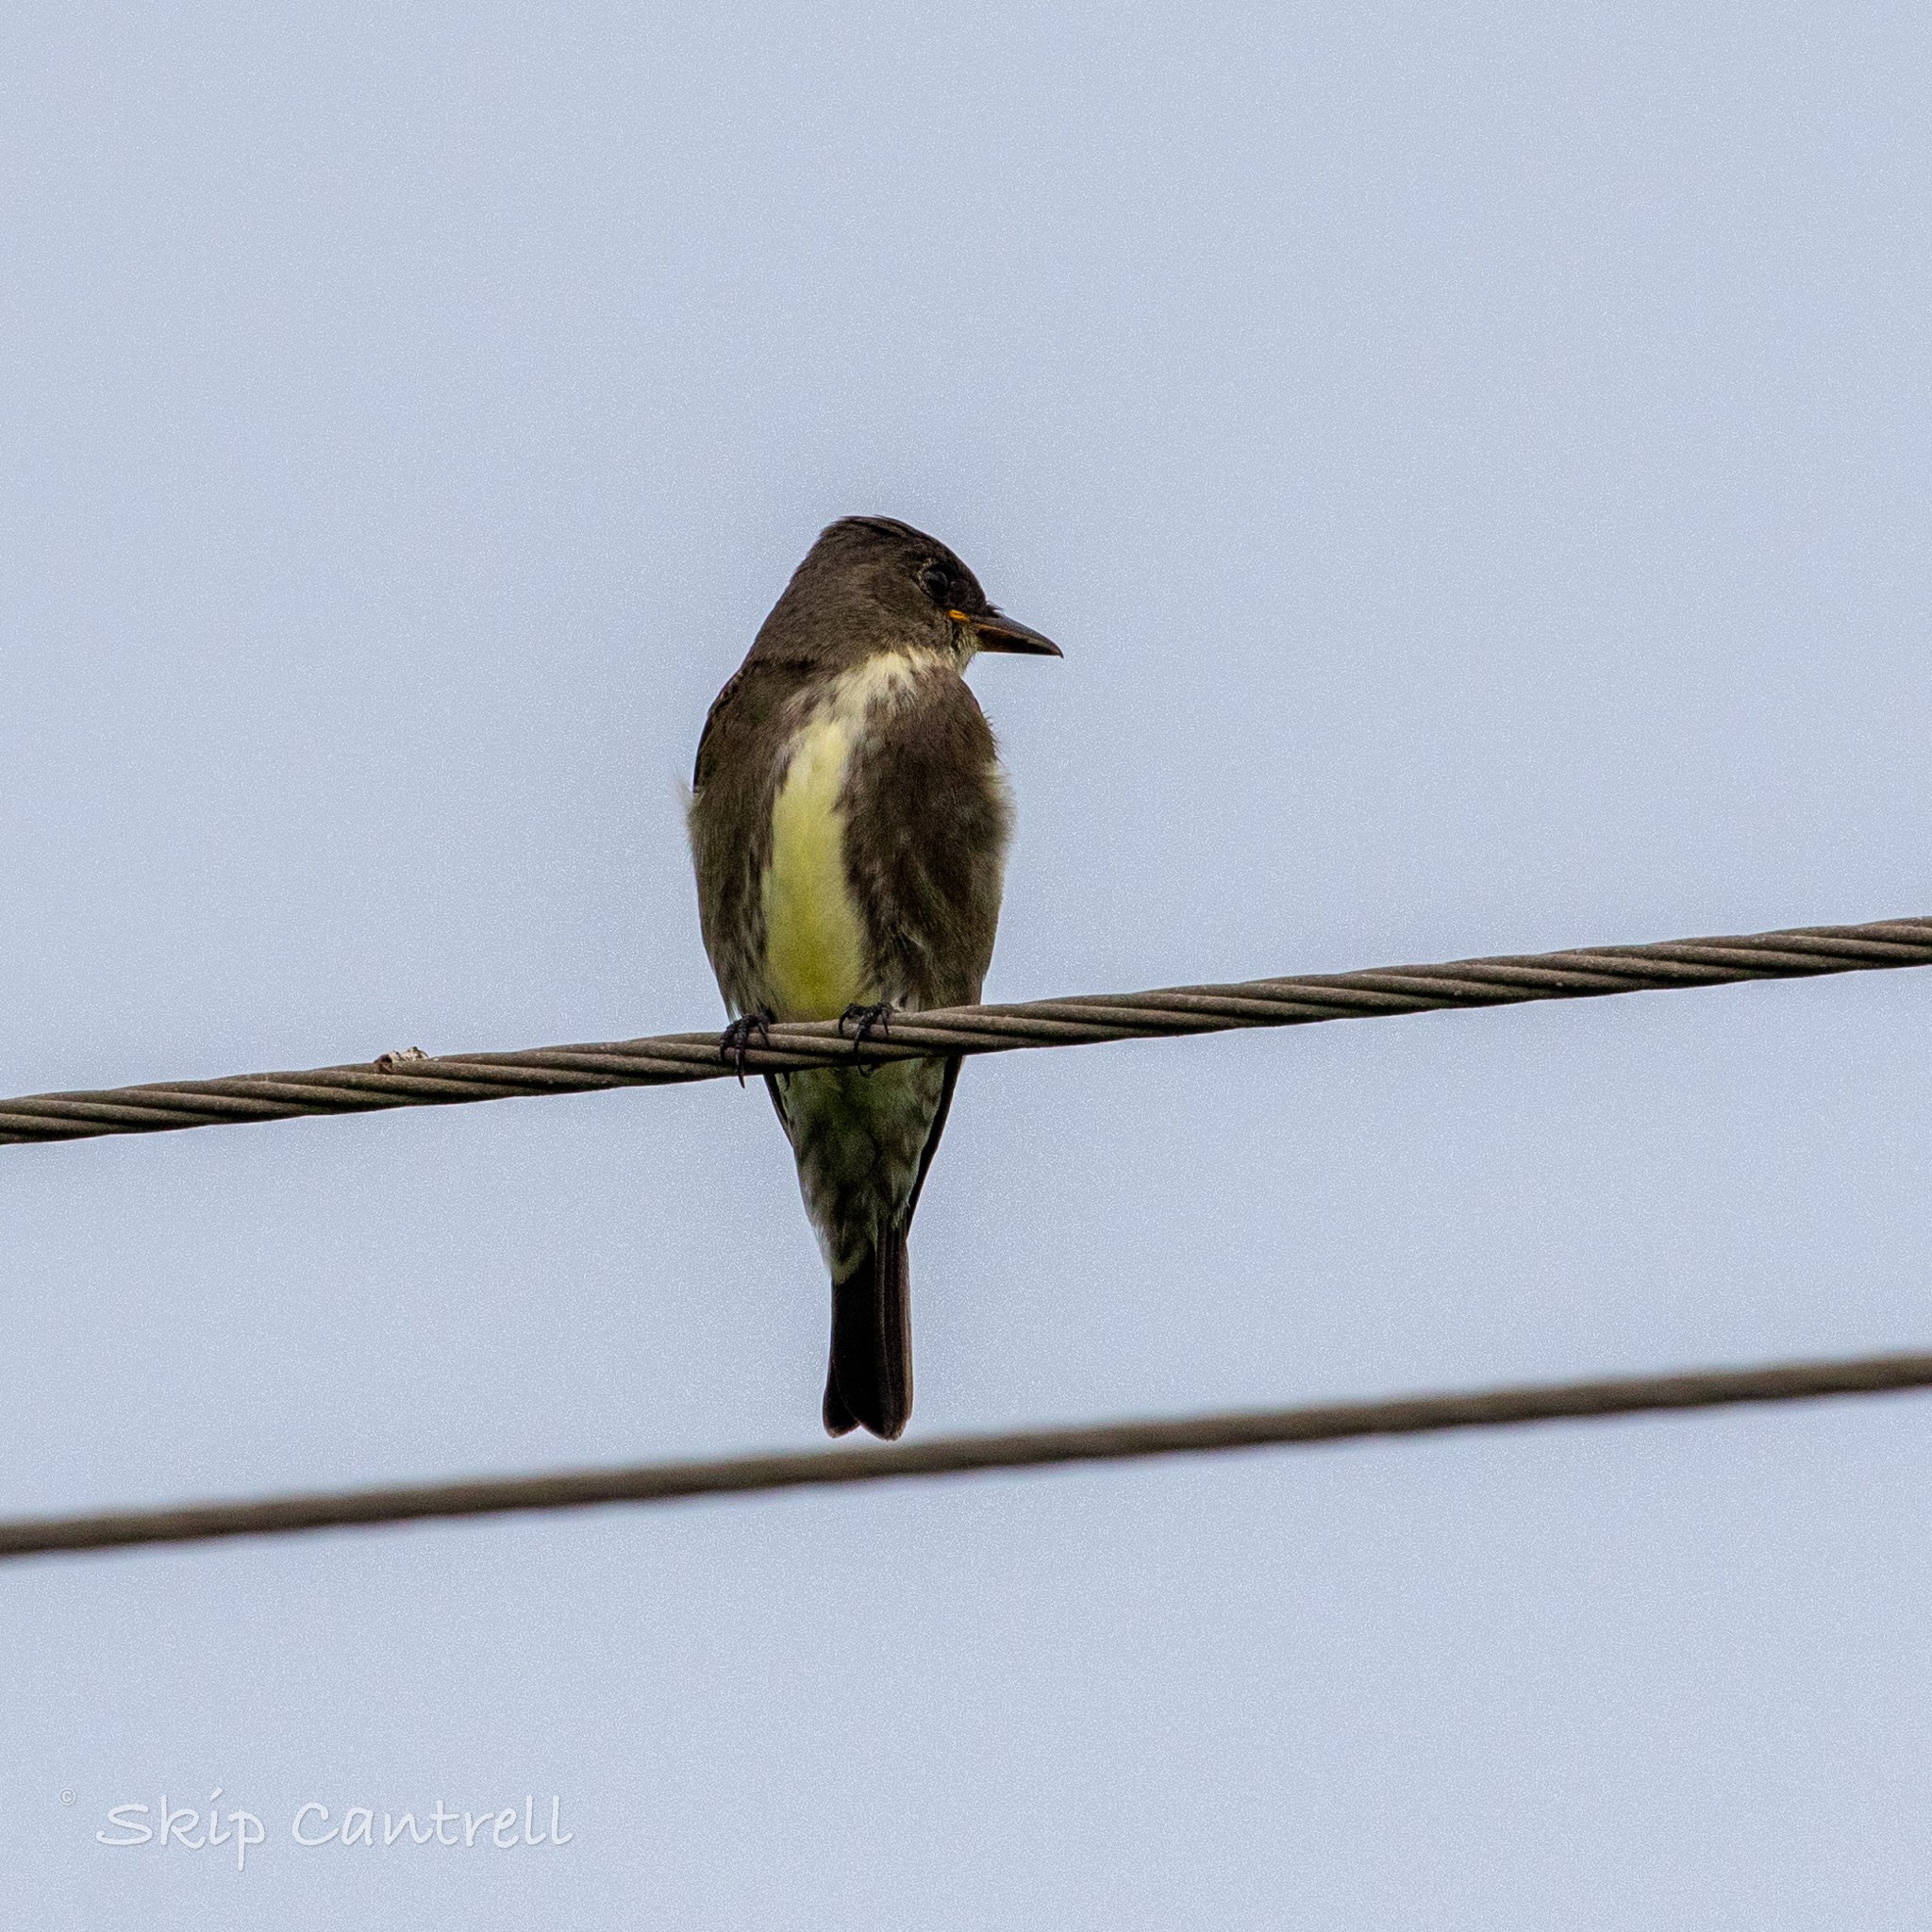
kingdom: Animalia
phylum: Chordata
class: Aves
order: Passeriformes
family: Tyrannidae
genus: Contopus
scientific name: Contopus cooperi
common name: Olive-sided flycatcher
